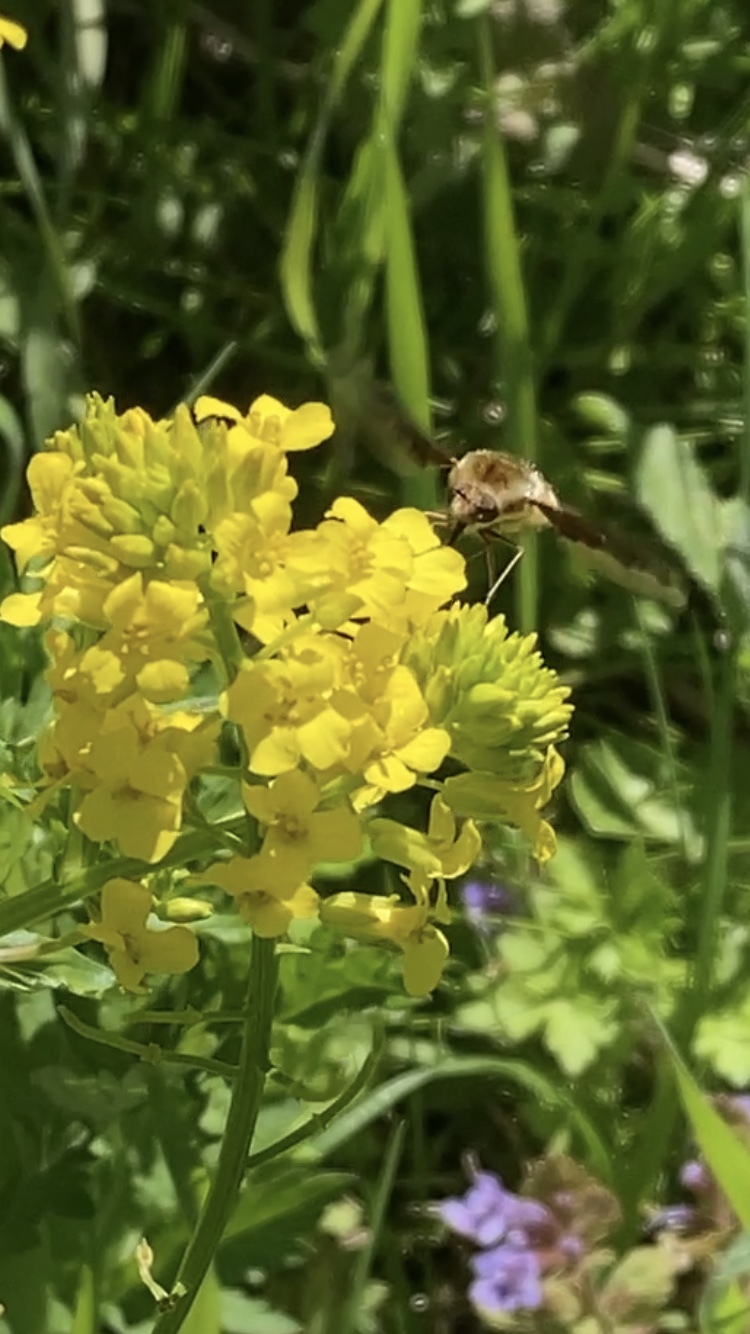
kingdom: Animalia
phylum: Arthropoda
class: Insecta
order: Diptera
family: Bombyliidae
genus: Bombylius
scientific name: Bombylius major
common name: Bee fly
